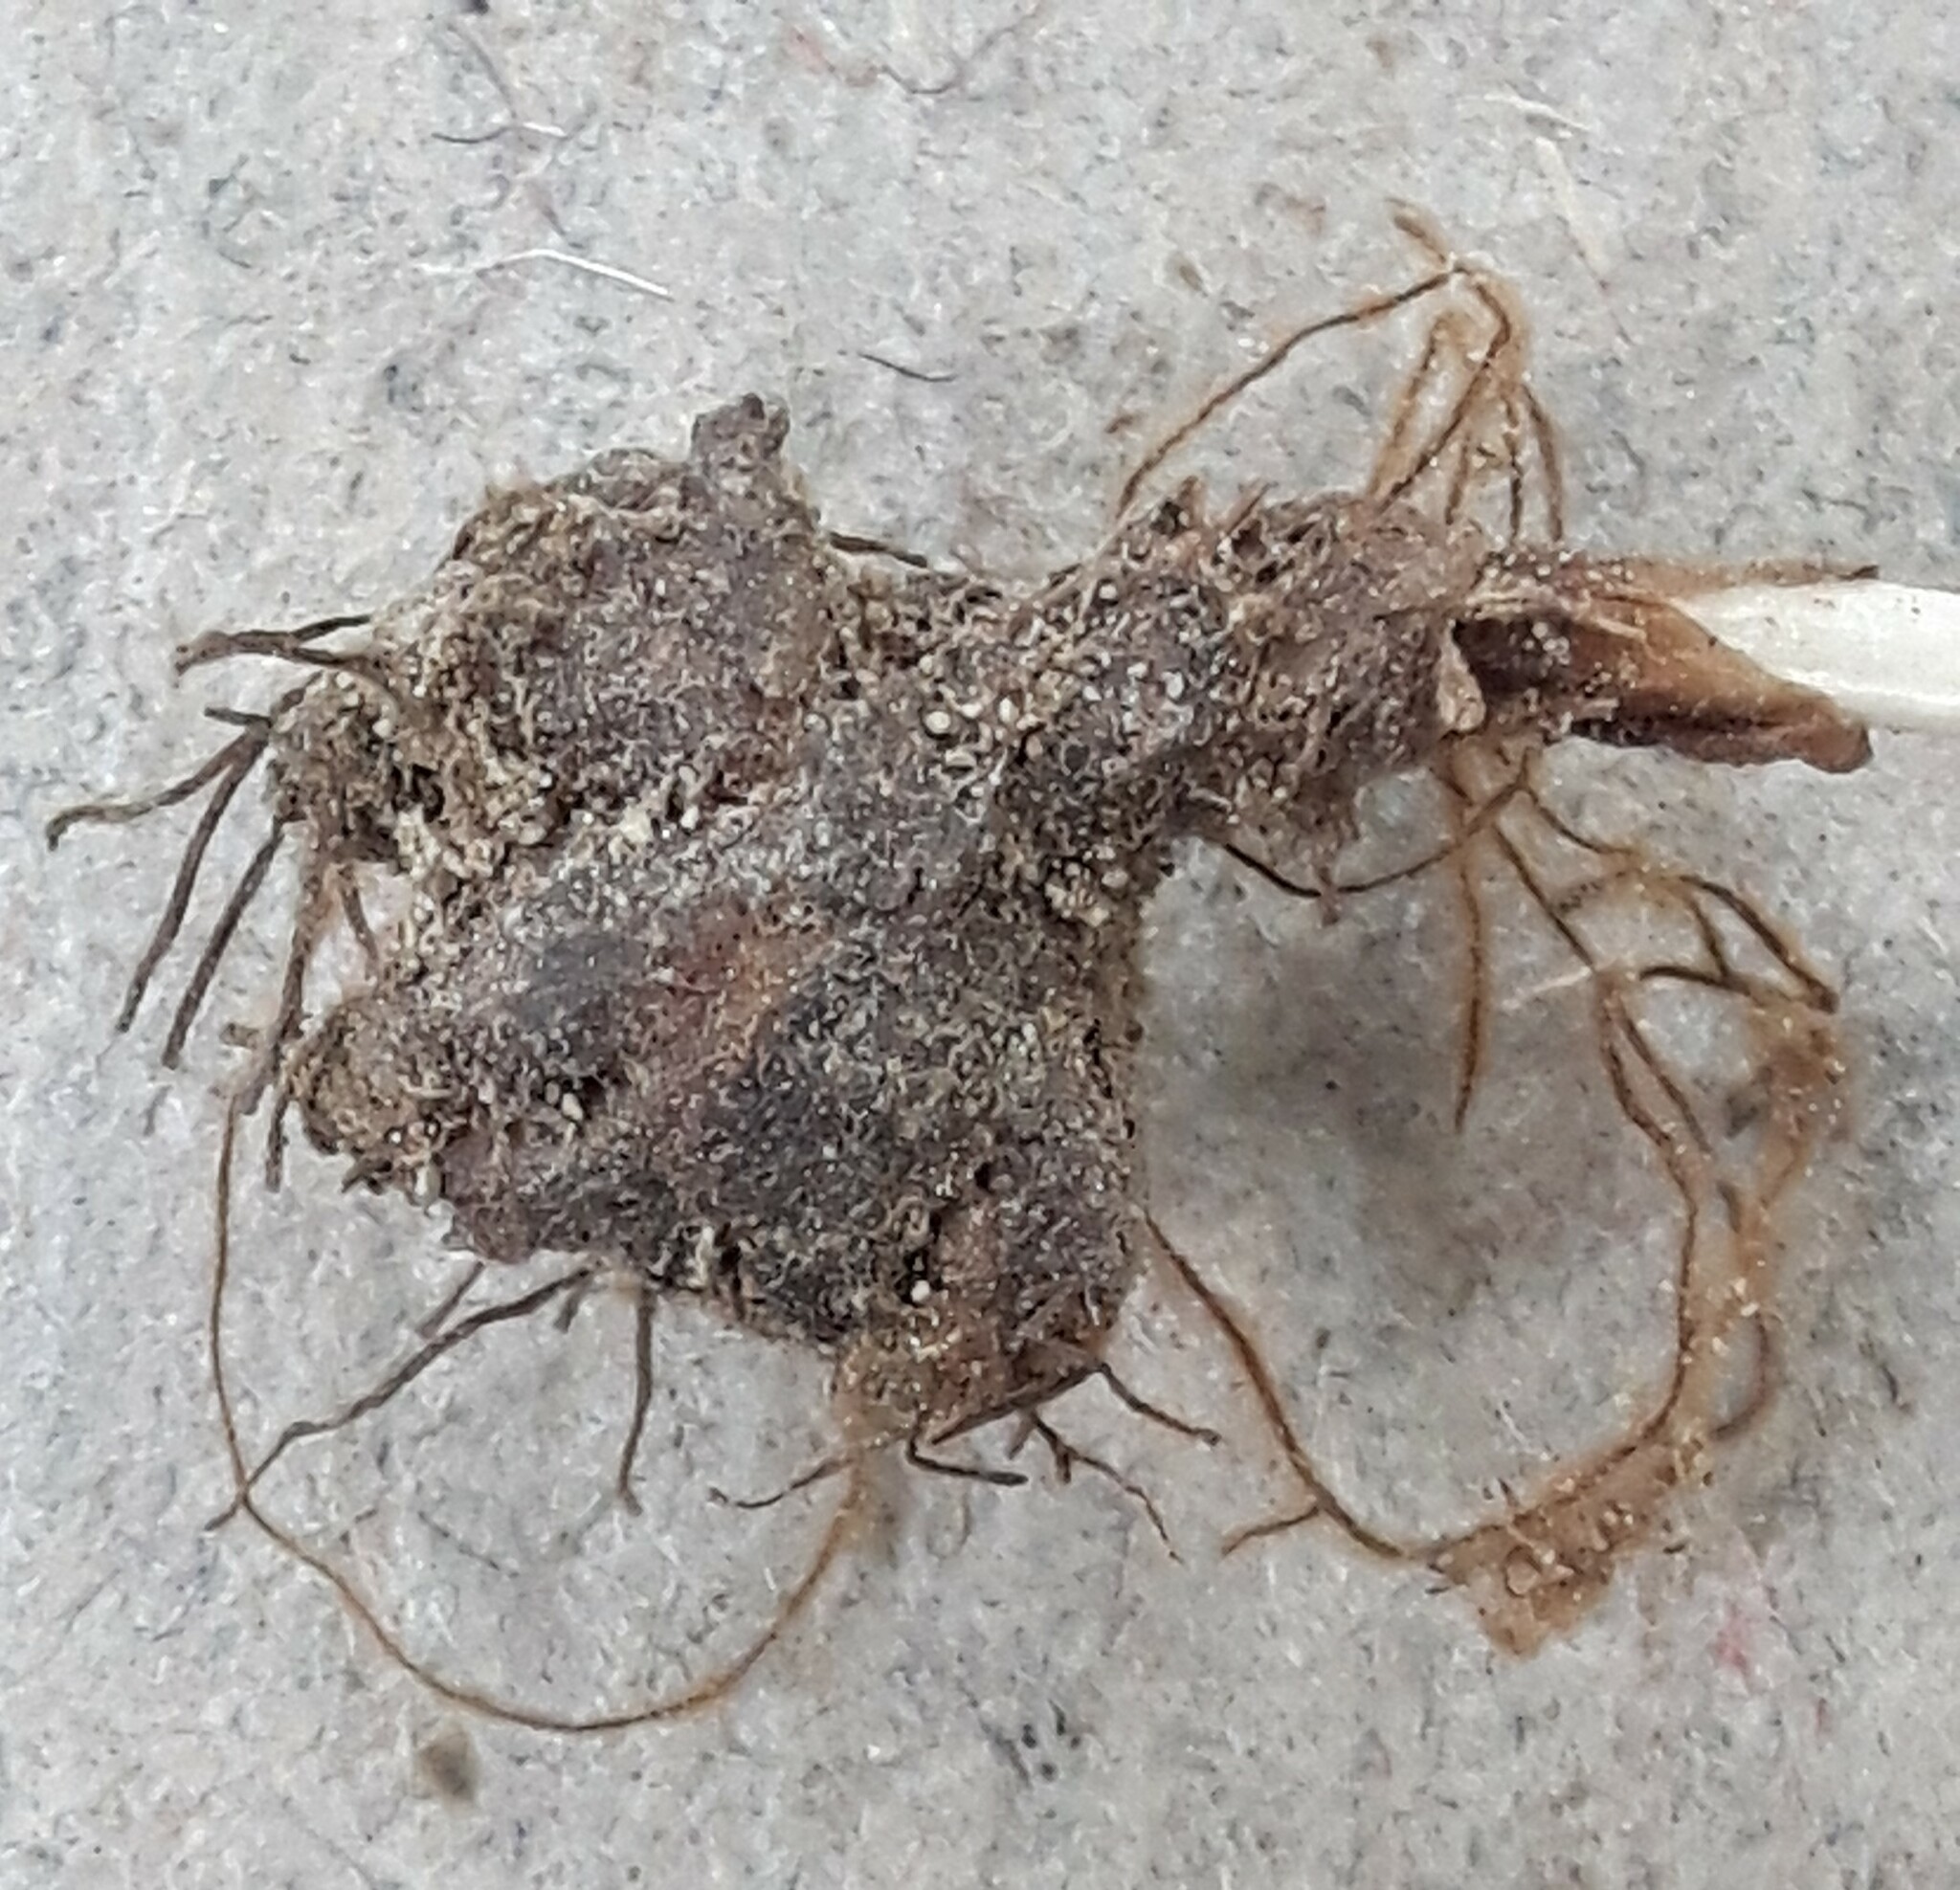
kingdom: Plantae
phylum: Tracheophyta
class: Magnoliopsida
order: Ranunculales
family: Ranunculaceae
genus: Delphinium
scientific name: Delphinium sutherlandii
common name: Sutherland's larkspur
